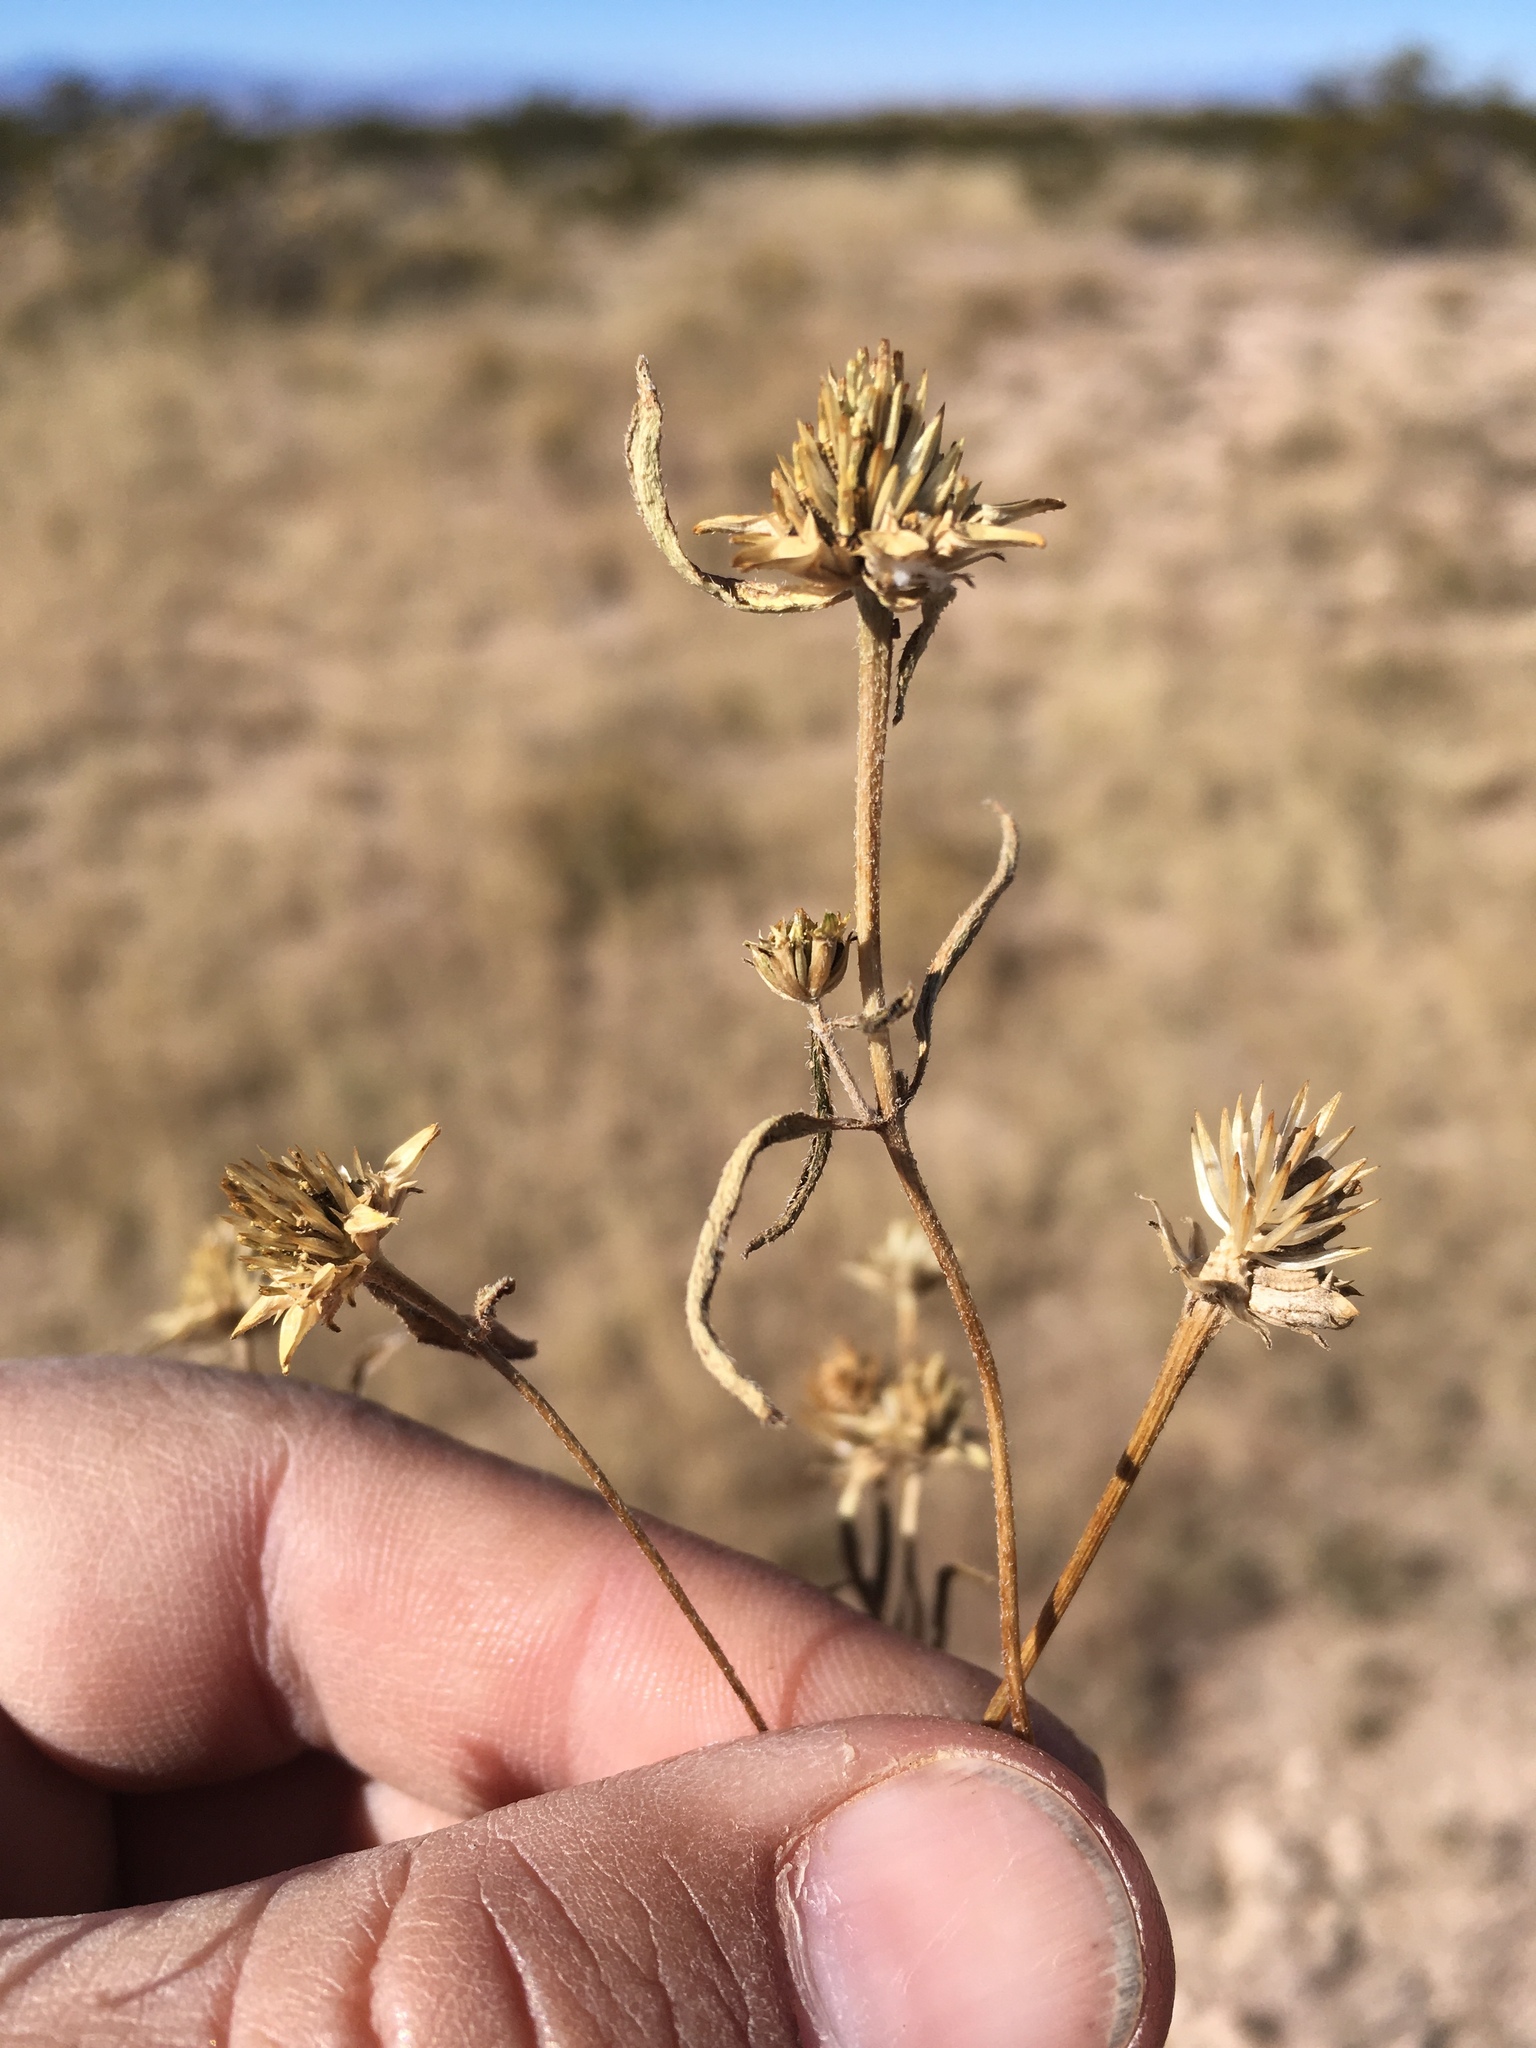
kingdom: Plantae
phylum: Tracheophyta
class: Magnoliopsida
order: Asterales
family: Asteraceae
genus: Sanvitalia
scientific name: Sanvitalia abertii
